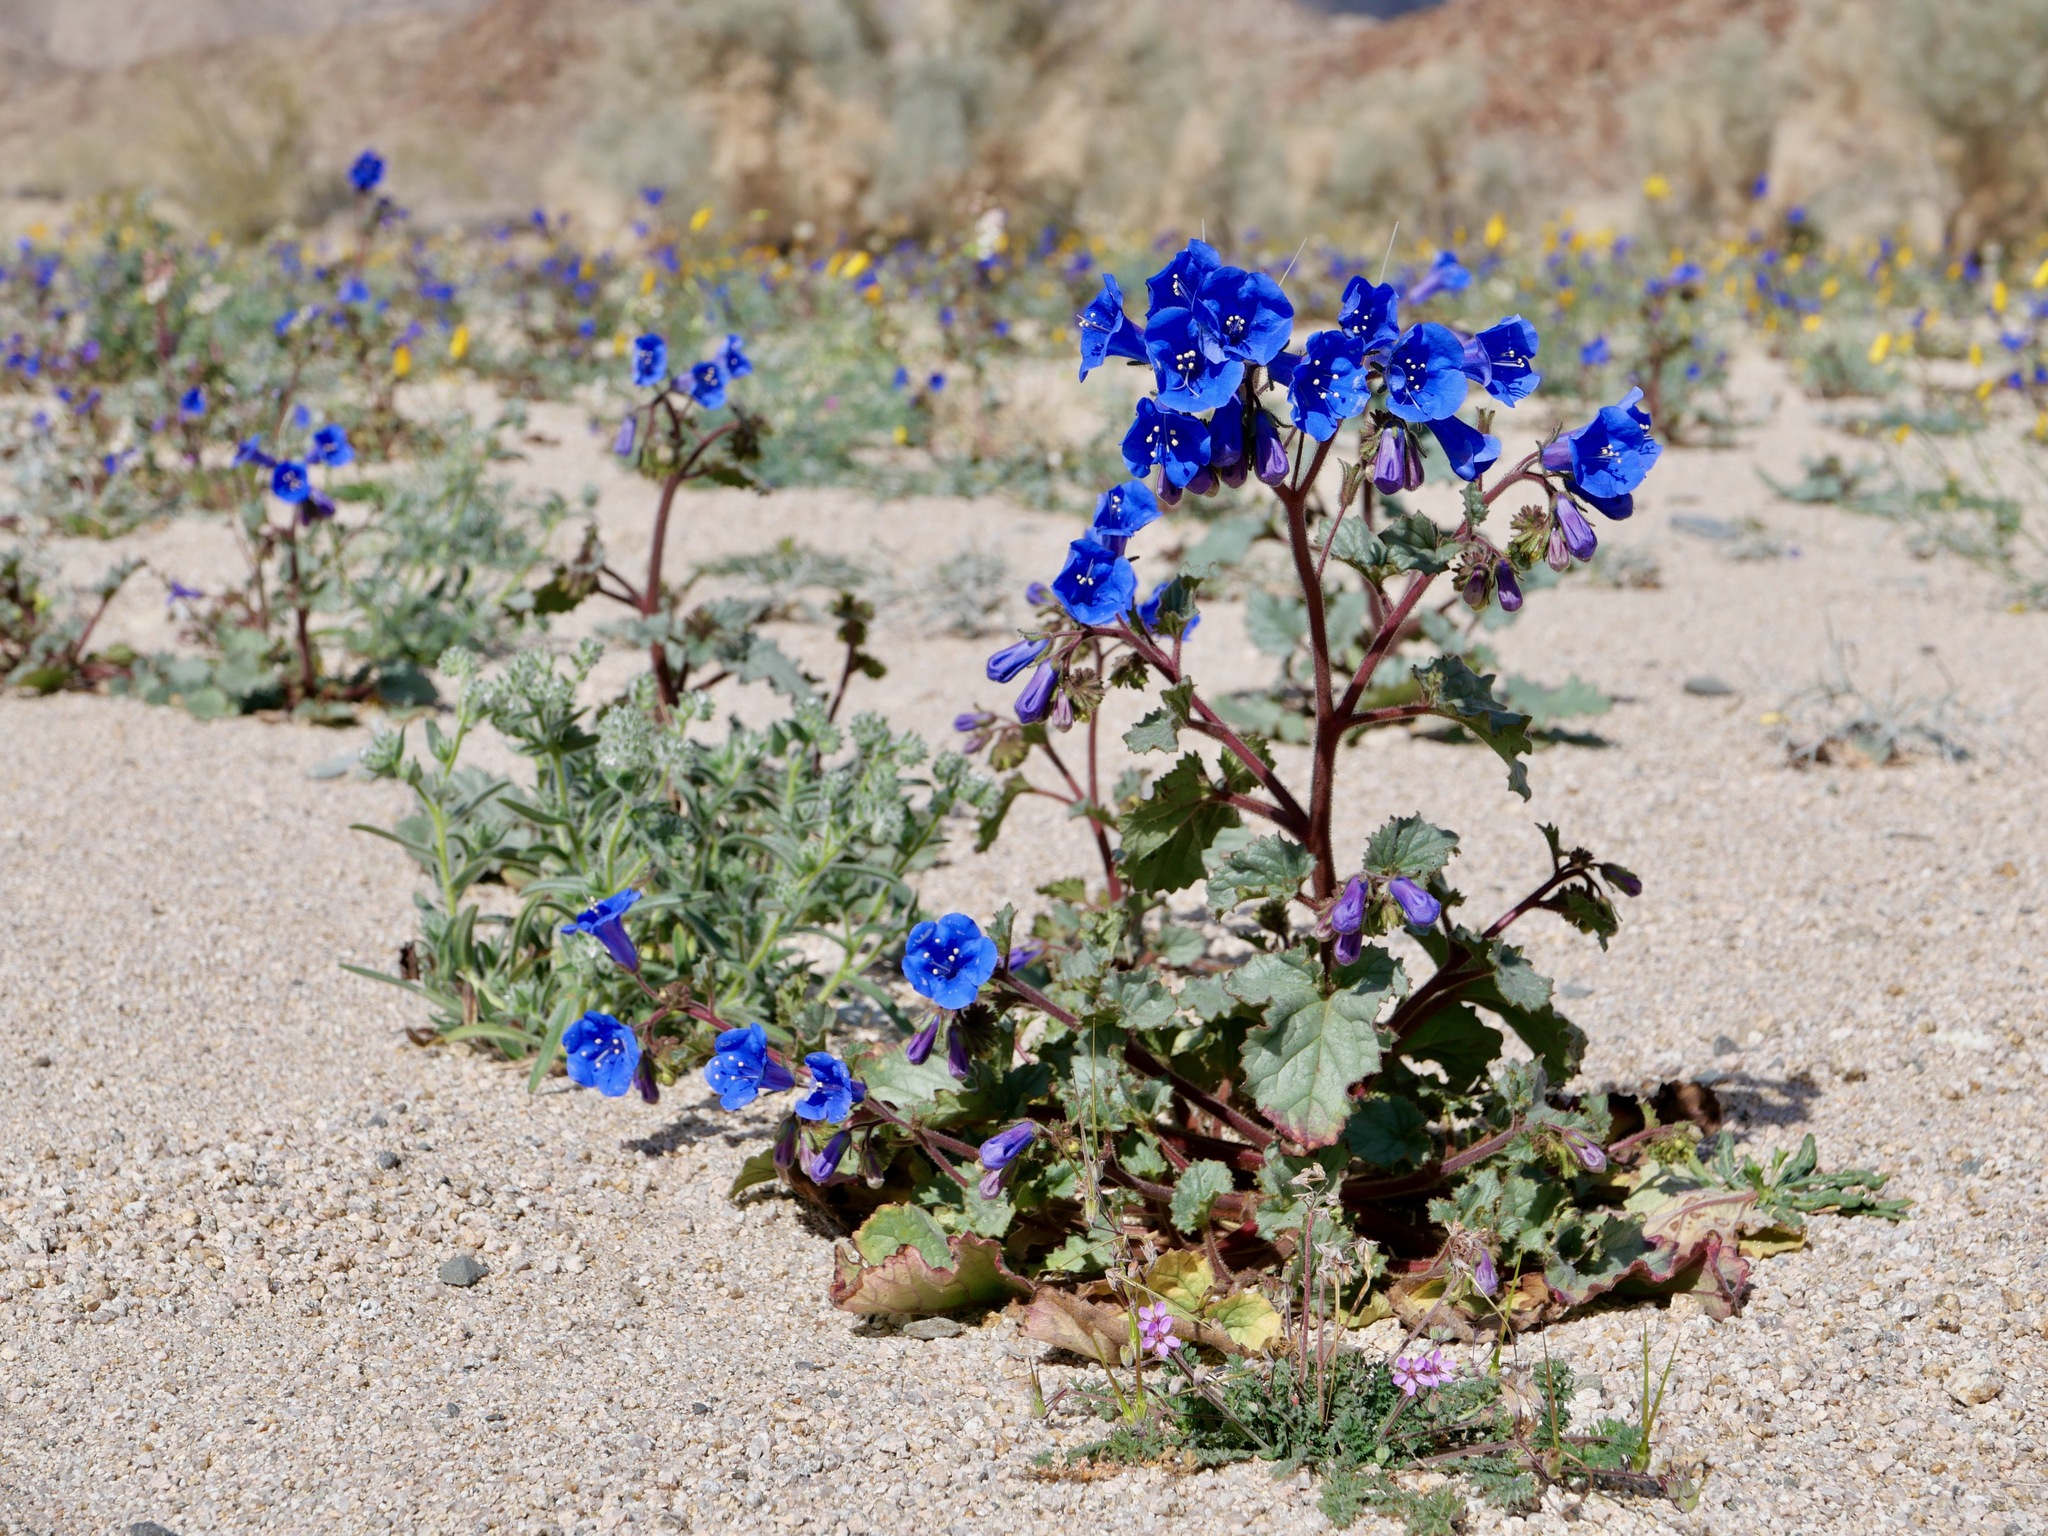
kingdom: Plantae
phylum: Tracheophyta
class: Magnoliopsida
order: Boraginales
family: Hydrophyllaceae
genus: Phacelia
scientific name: Phacelia campanularia
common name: California bluebell
